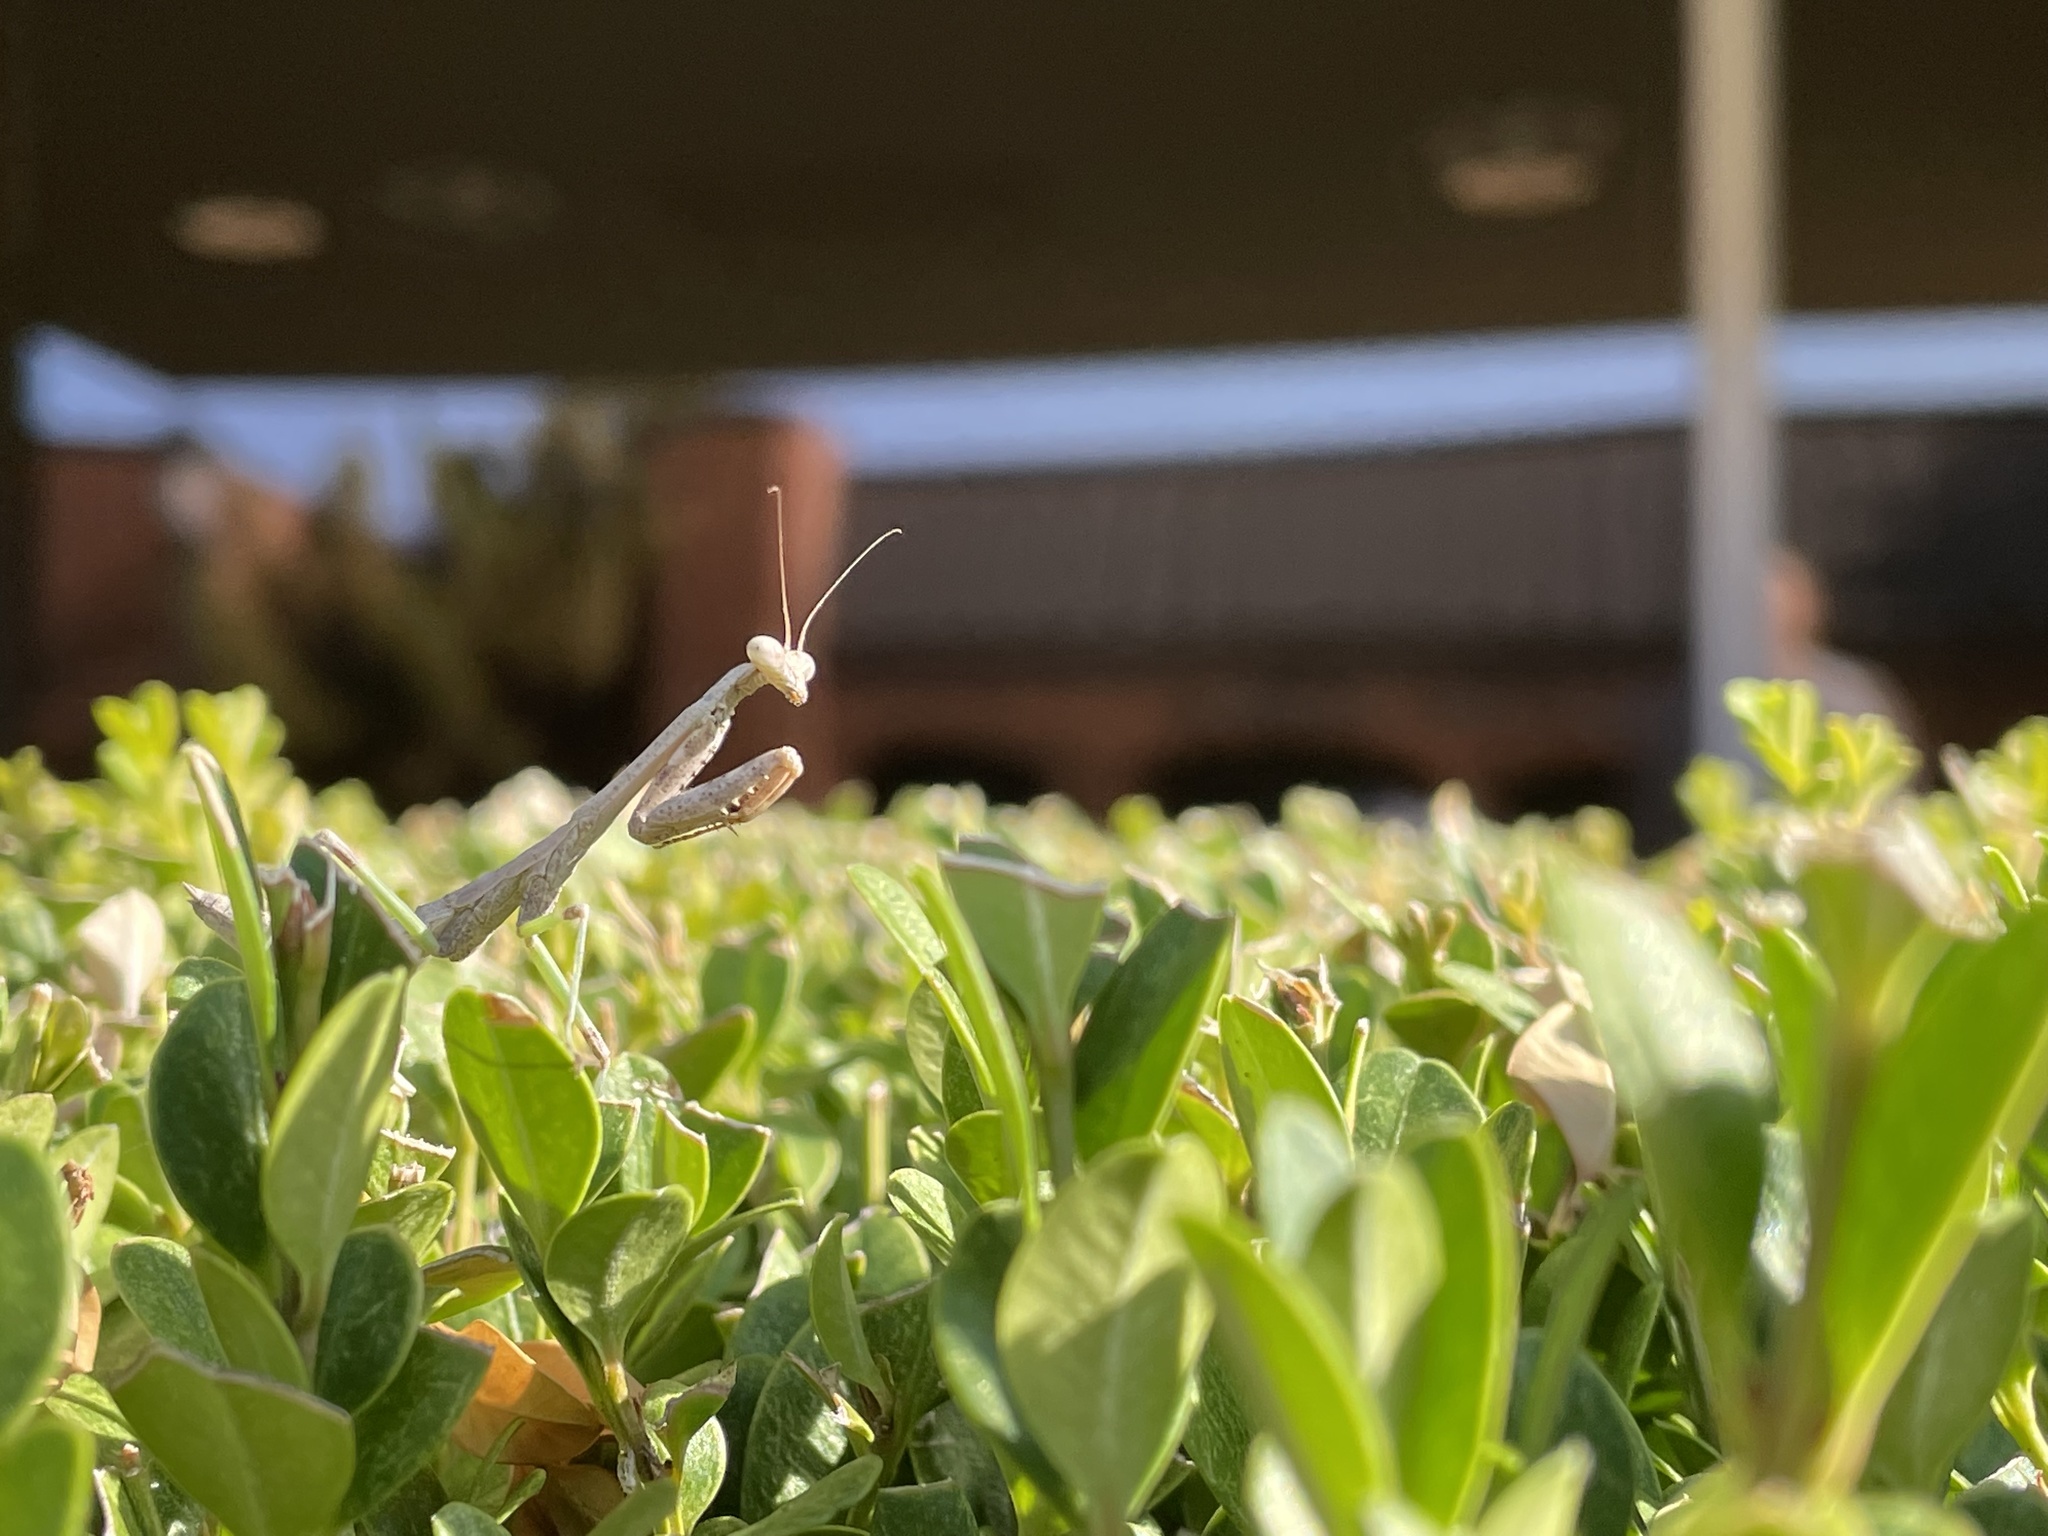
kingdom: Animalia
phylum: Arthropoda
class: Insecta
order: Mantodea
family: Mantidae
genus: Stagmomantis
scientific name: Stagmomantis carolina
